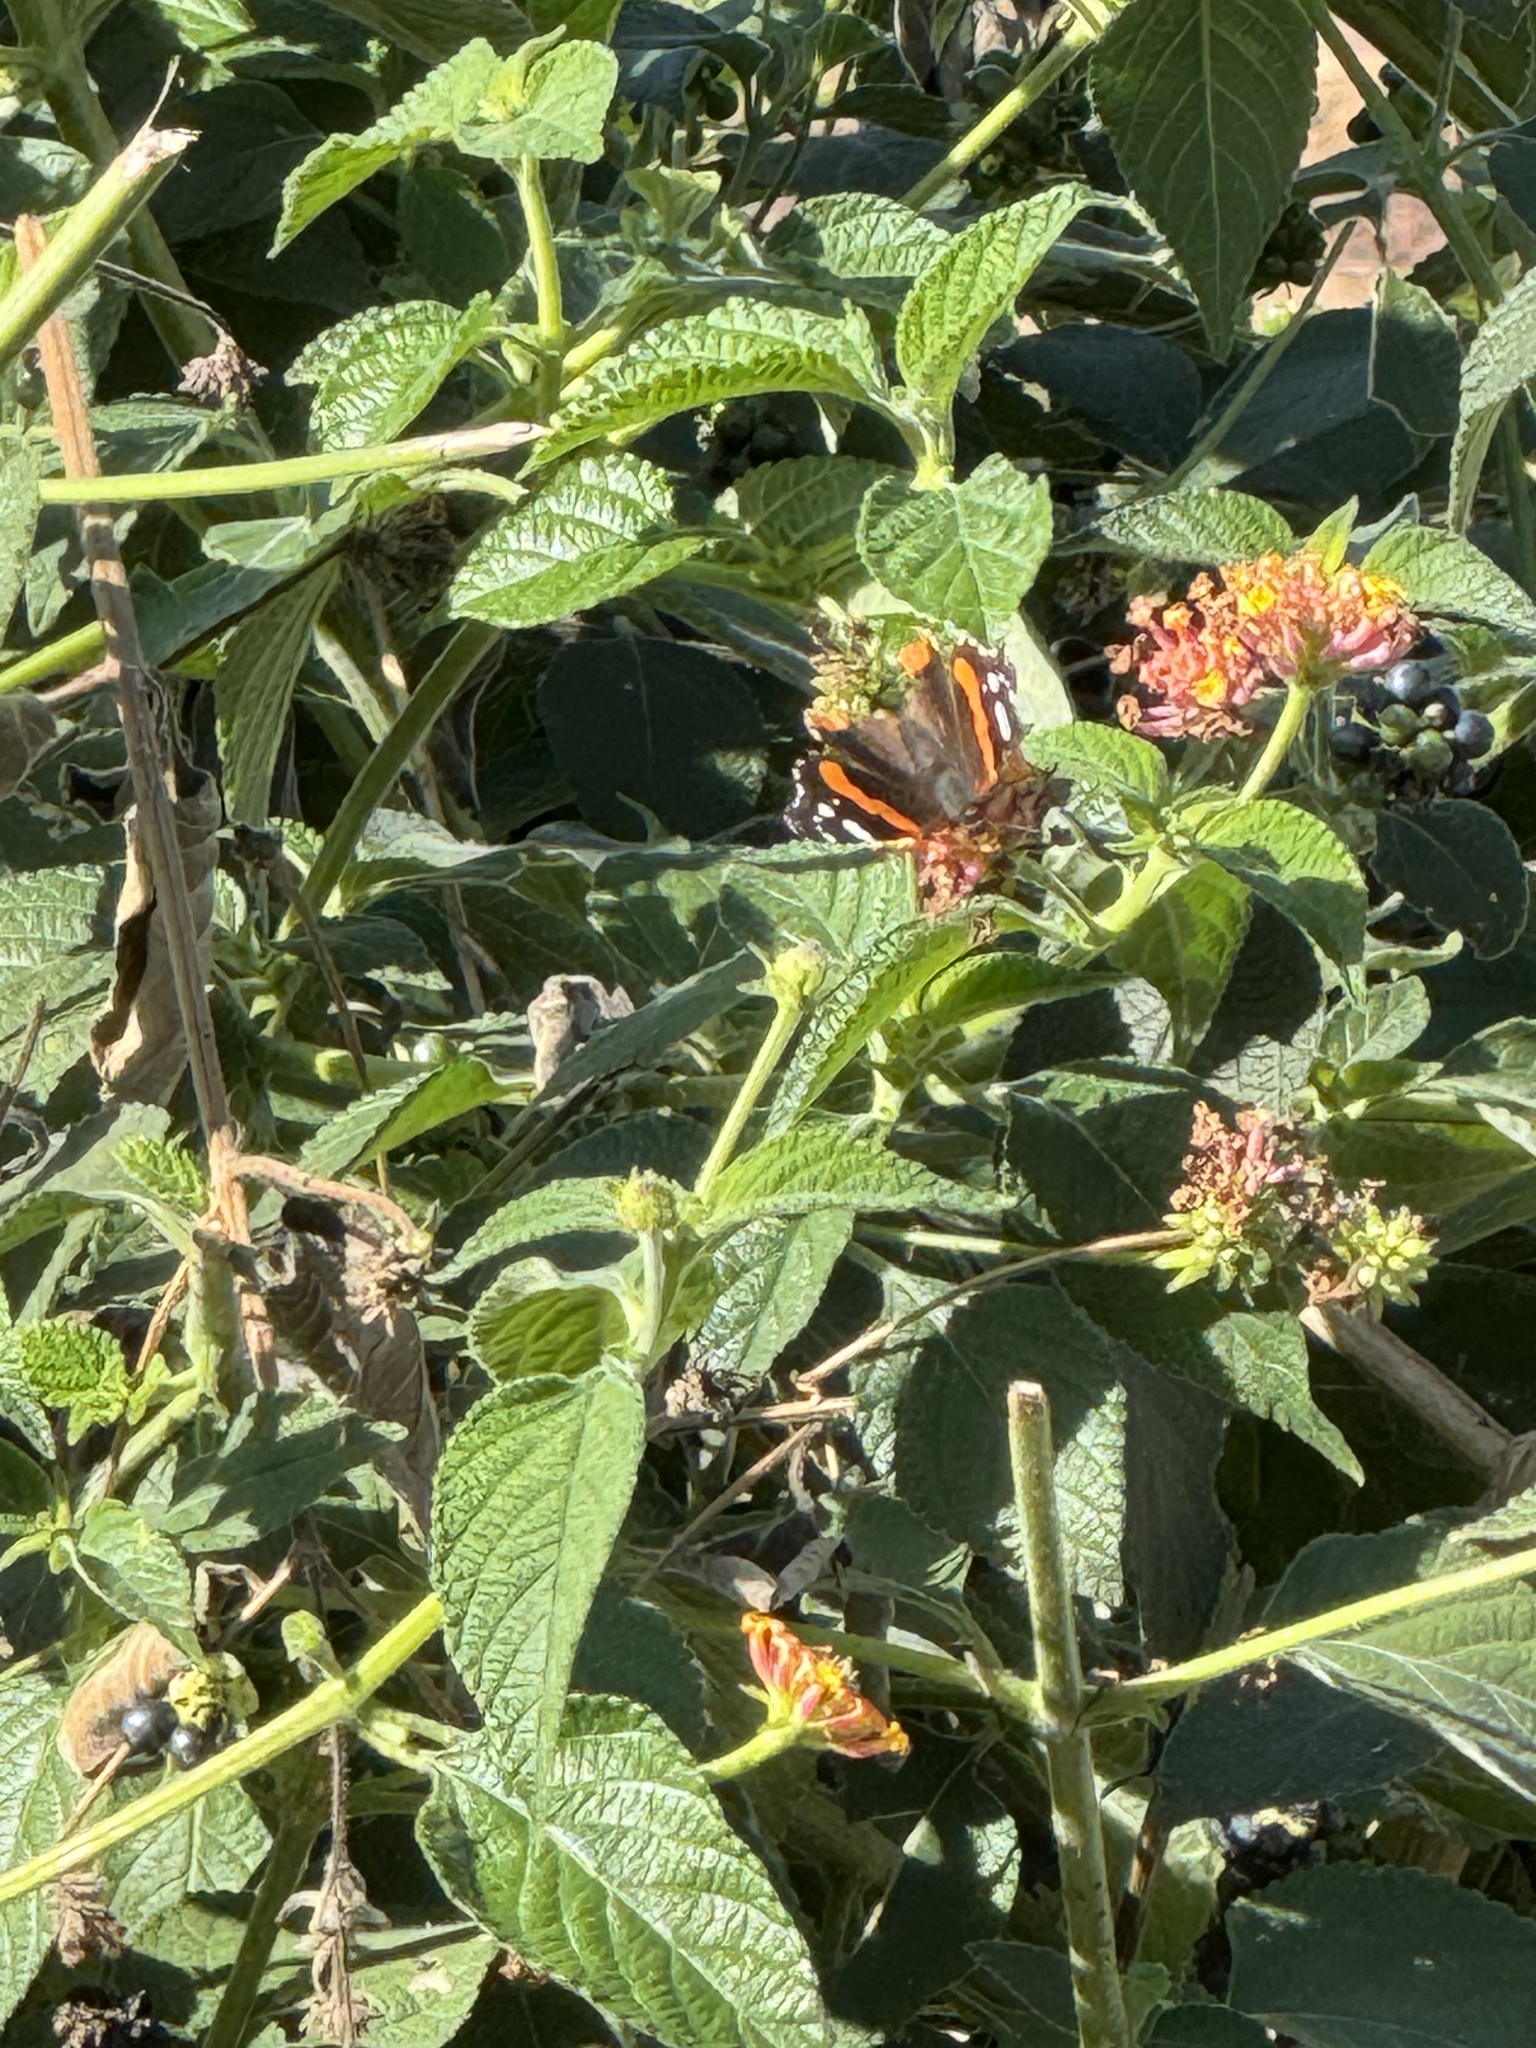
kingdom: Animalia
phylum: Arthropoda
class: Insecta
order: Lepidoptera
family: Nymphalidae
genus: Vanessa
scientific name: Vanessa atalanta
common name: Red admiral
